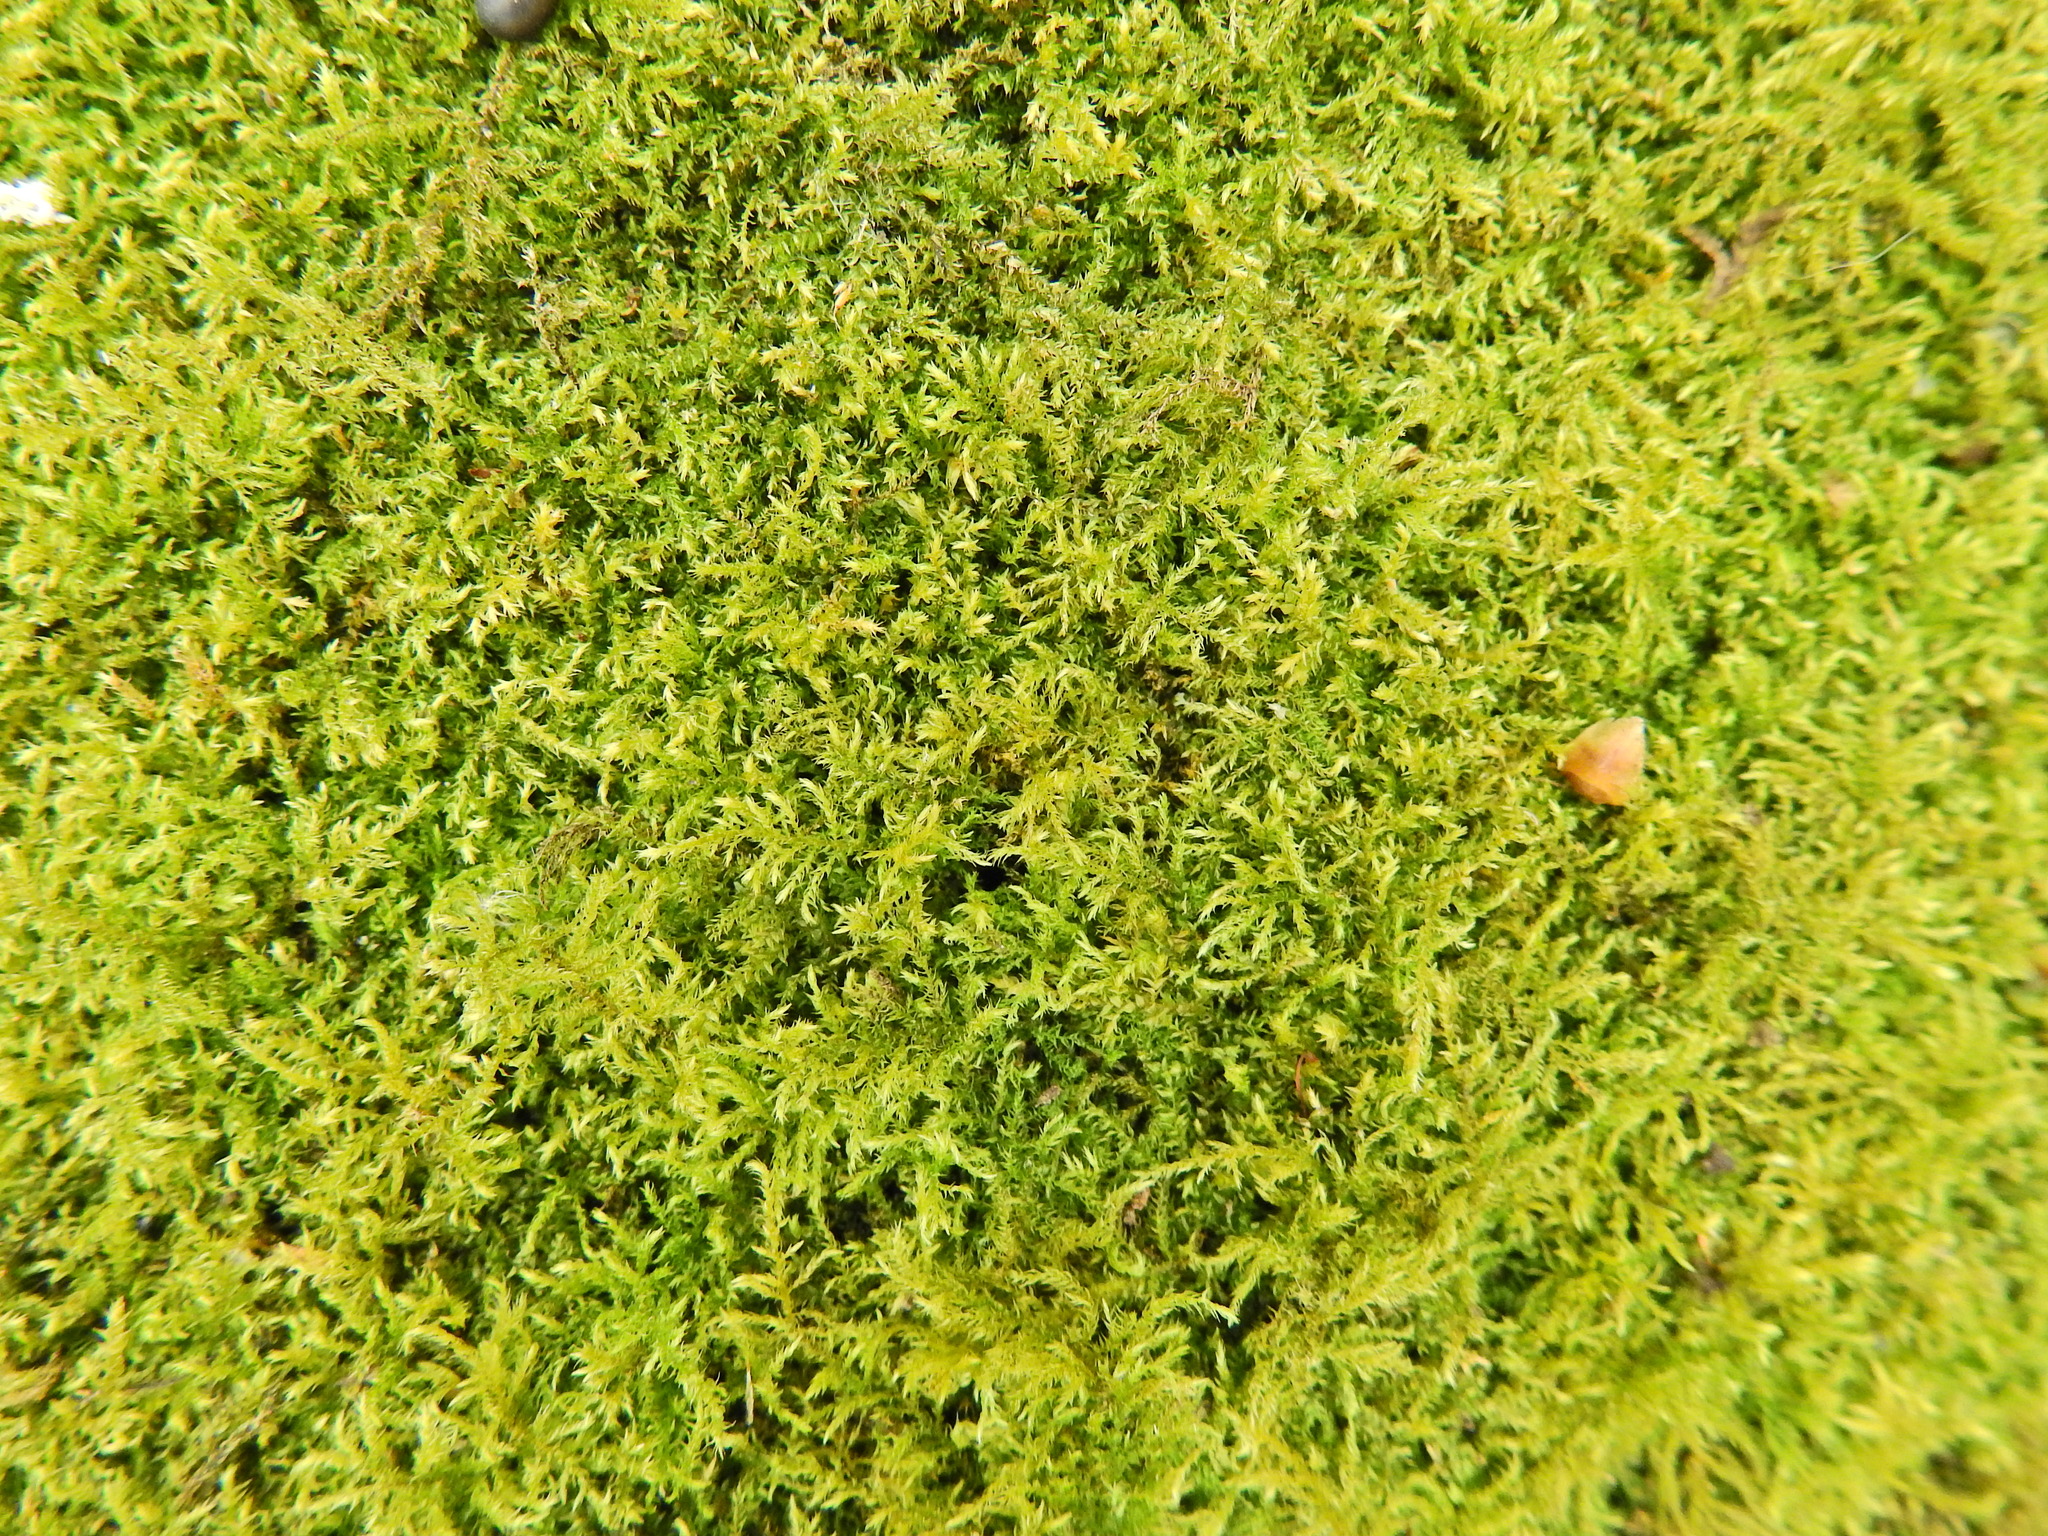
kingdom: Plantae
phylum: Bryophyta
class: Bryopsida
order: Hypnales
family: Brachytheciaceae
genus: Kindbergia
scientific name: Kindbergia praelonga
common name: Slender beaked moss
